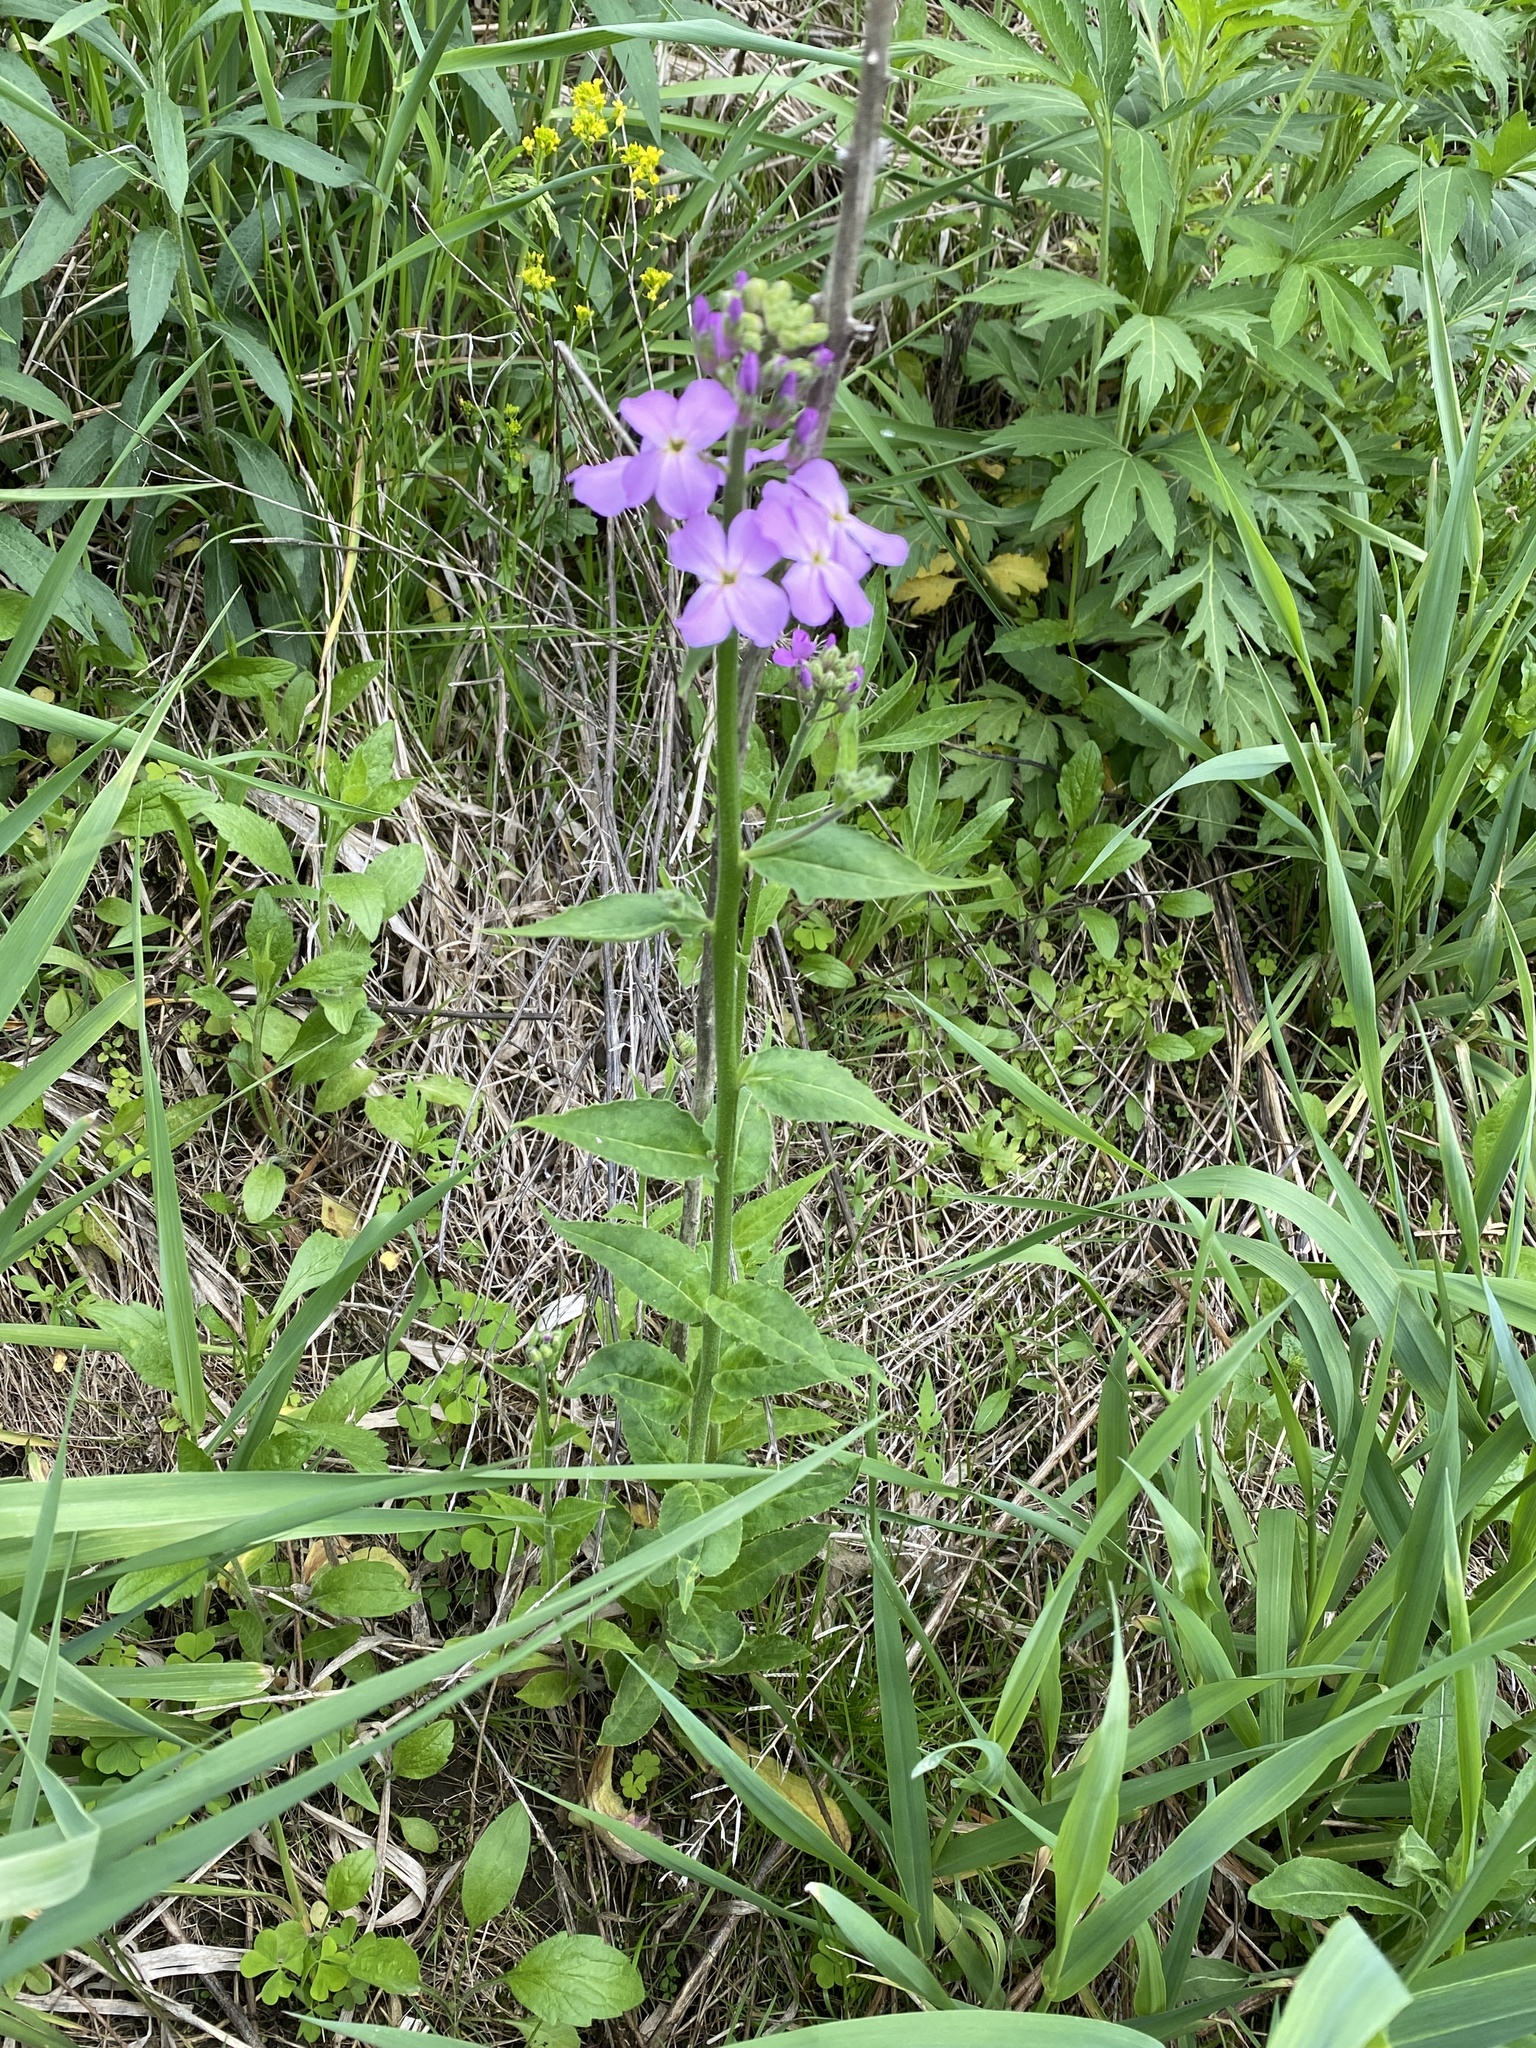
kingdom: Plantae
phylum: Tracheophyta
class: Magnoliopsida
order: Brassicales
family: Brassicaceae
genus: Hesperis
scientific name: Hesperis matronalis
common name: Dame's-violet
